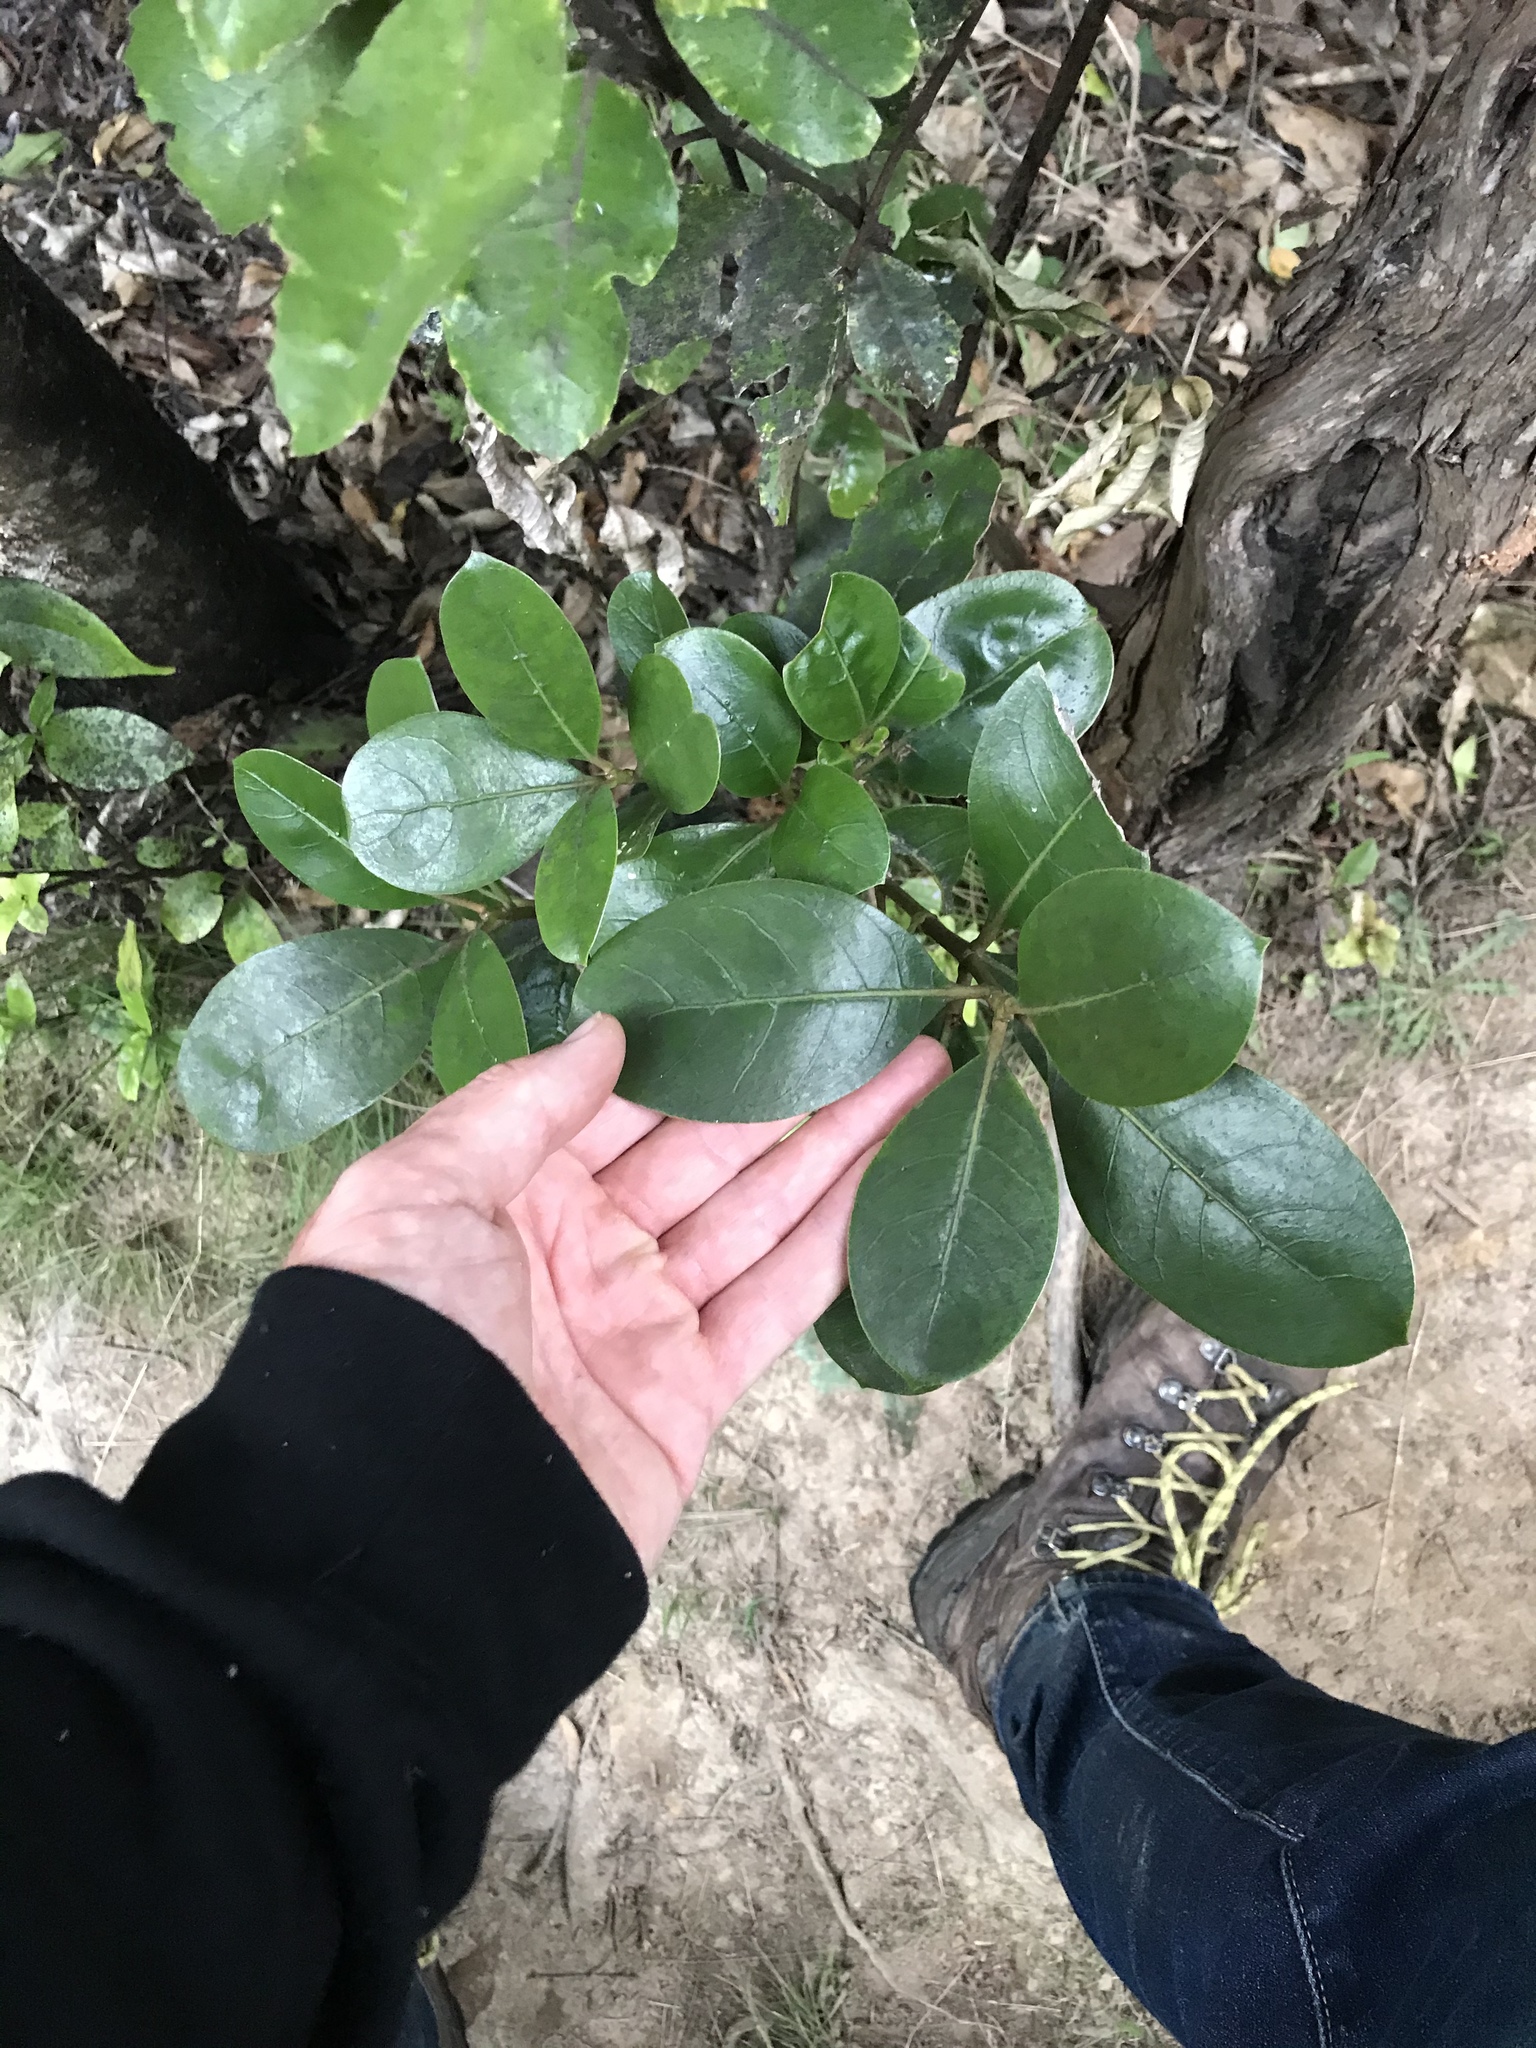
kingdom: Plantae
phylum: Tracheophyta
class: Magnoliopsida
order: Gentianales
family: Rubiaceae
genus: Coprosma
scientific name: Coprosma lucida
